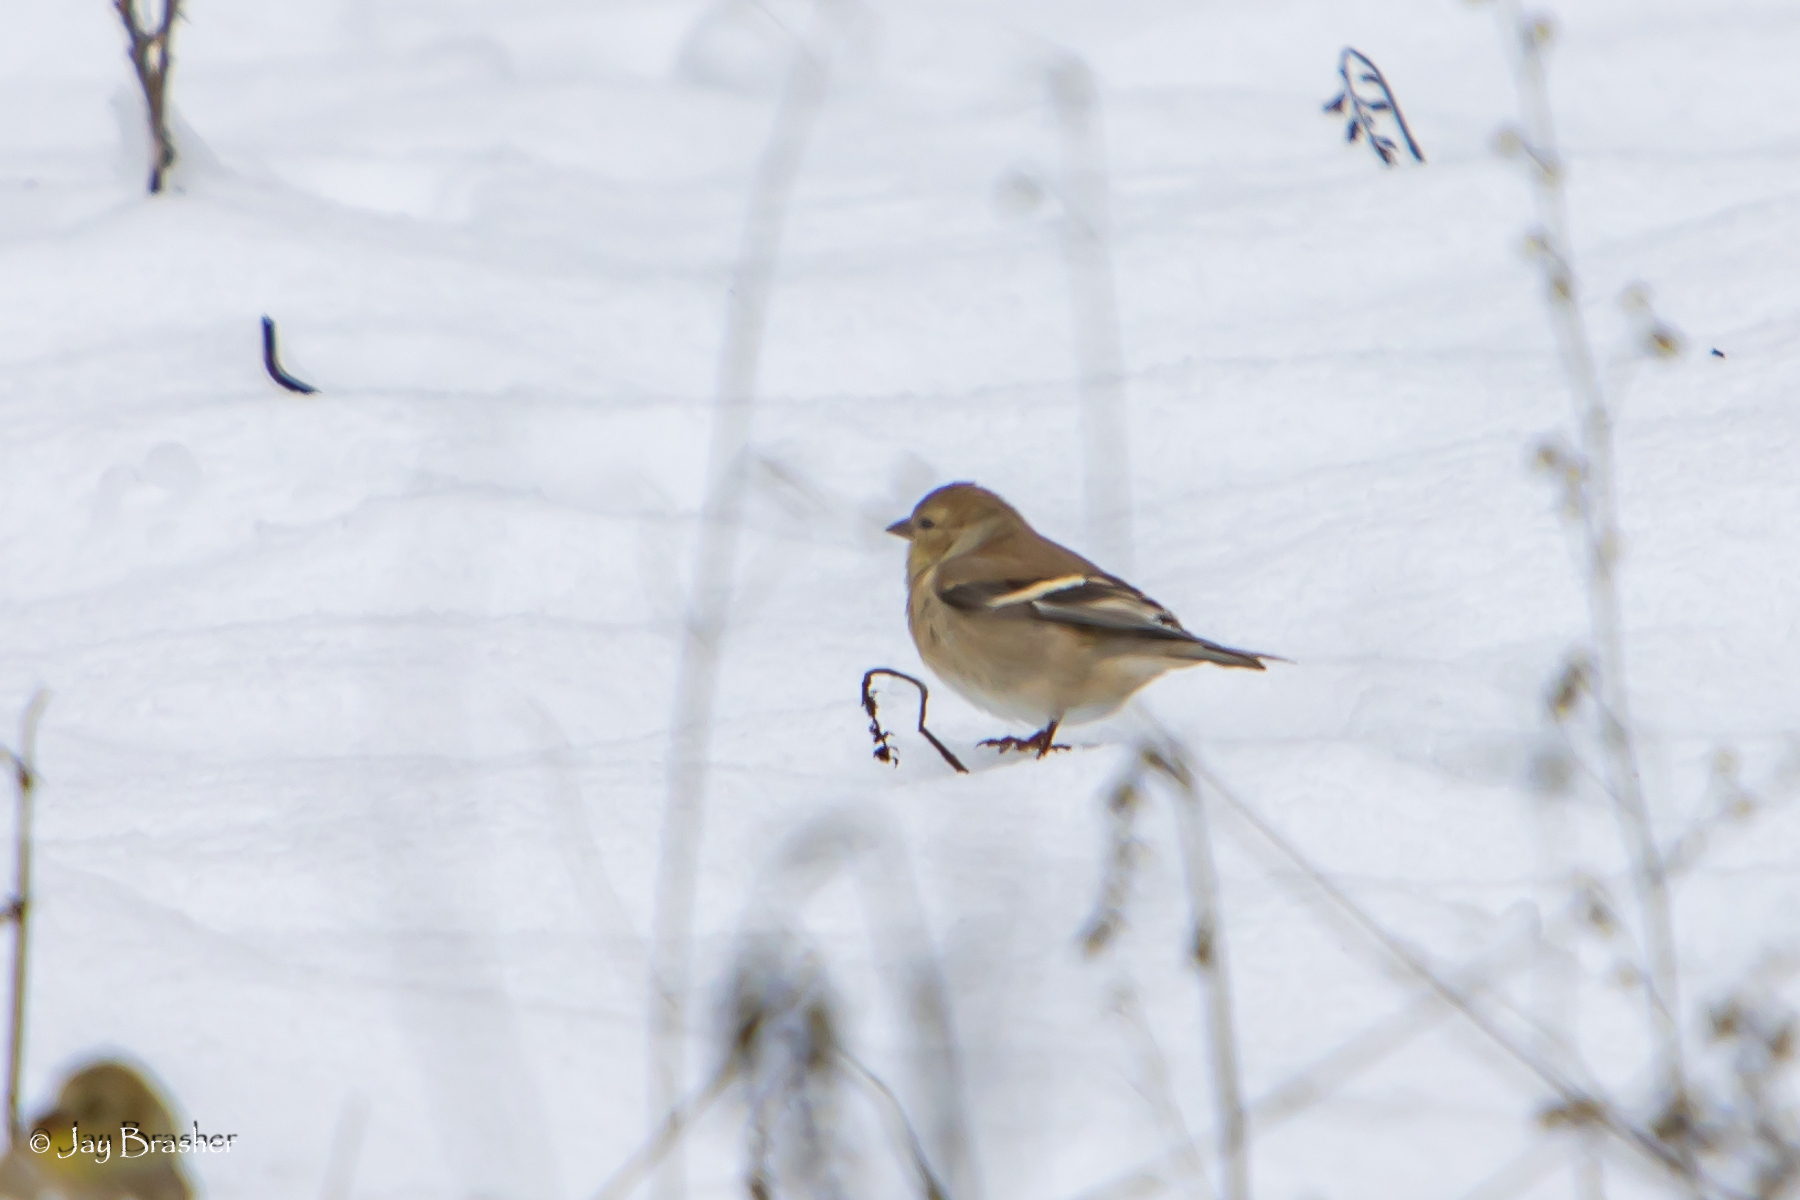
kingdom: Animalia
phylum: Chordata
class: Aves
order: Passeriformes
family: Fringillidae
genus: Spinus
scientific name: Spinus tristis
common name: American goldfinch
